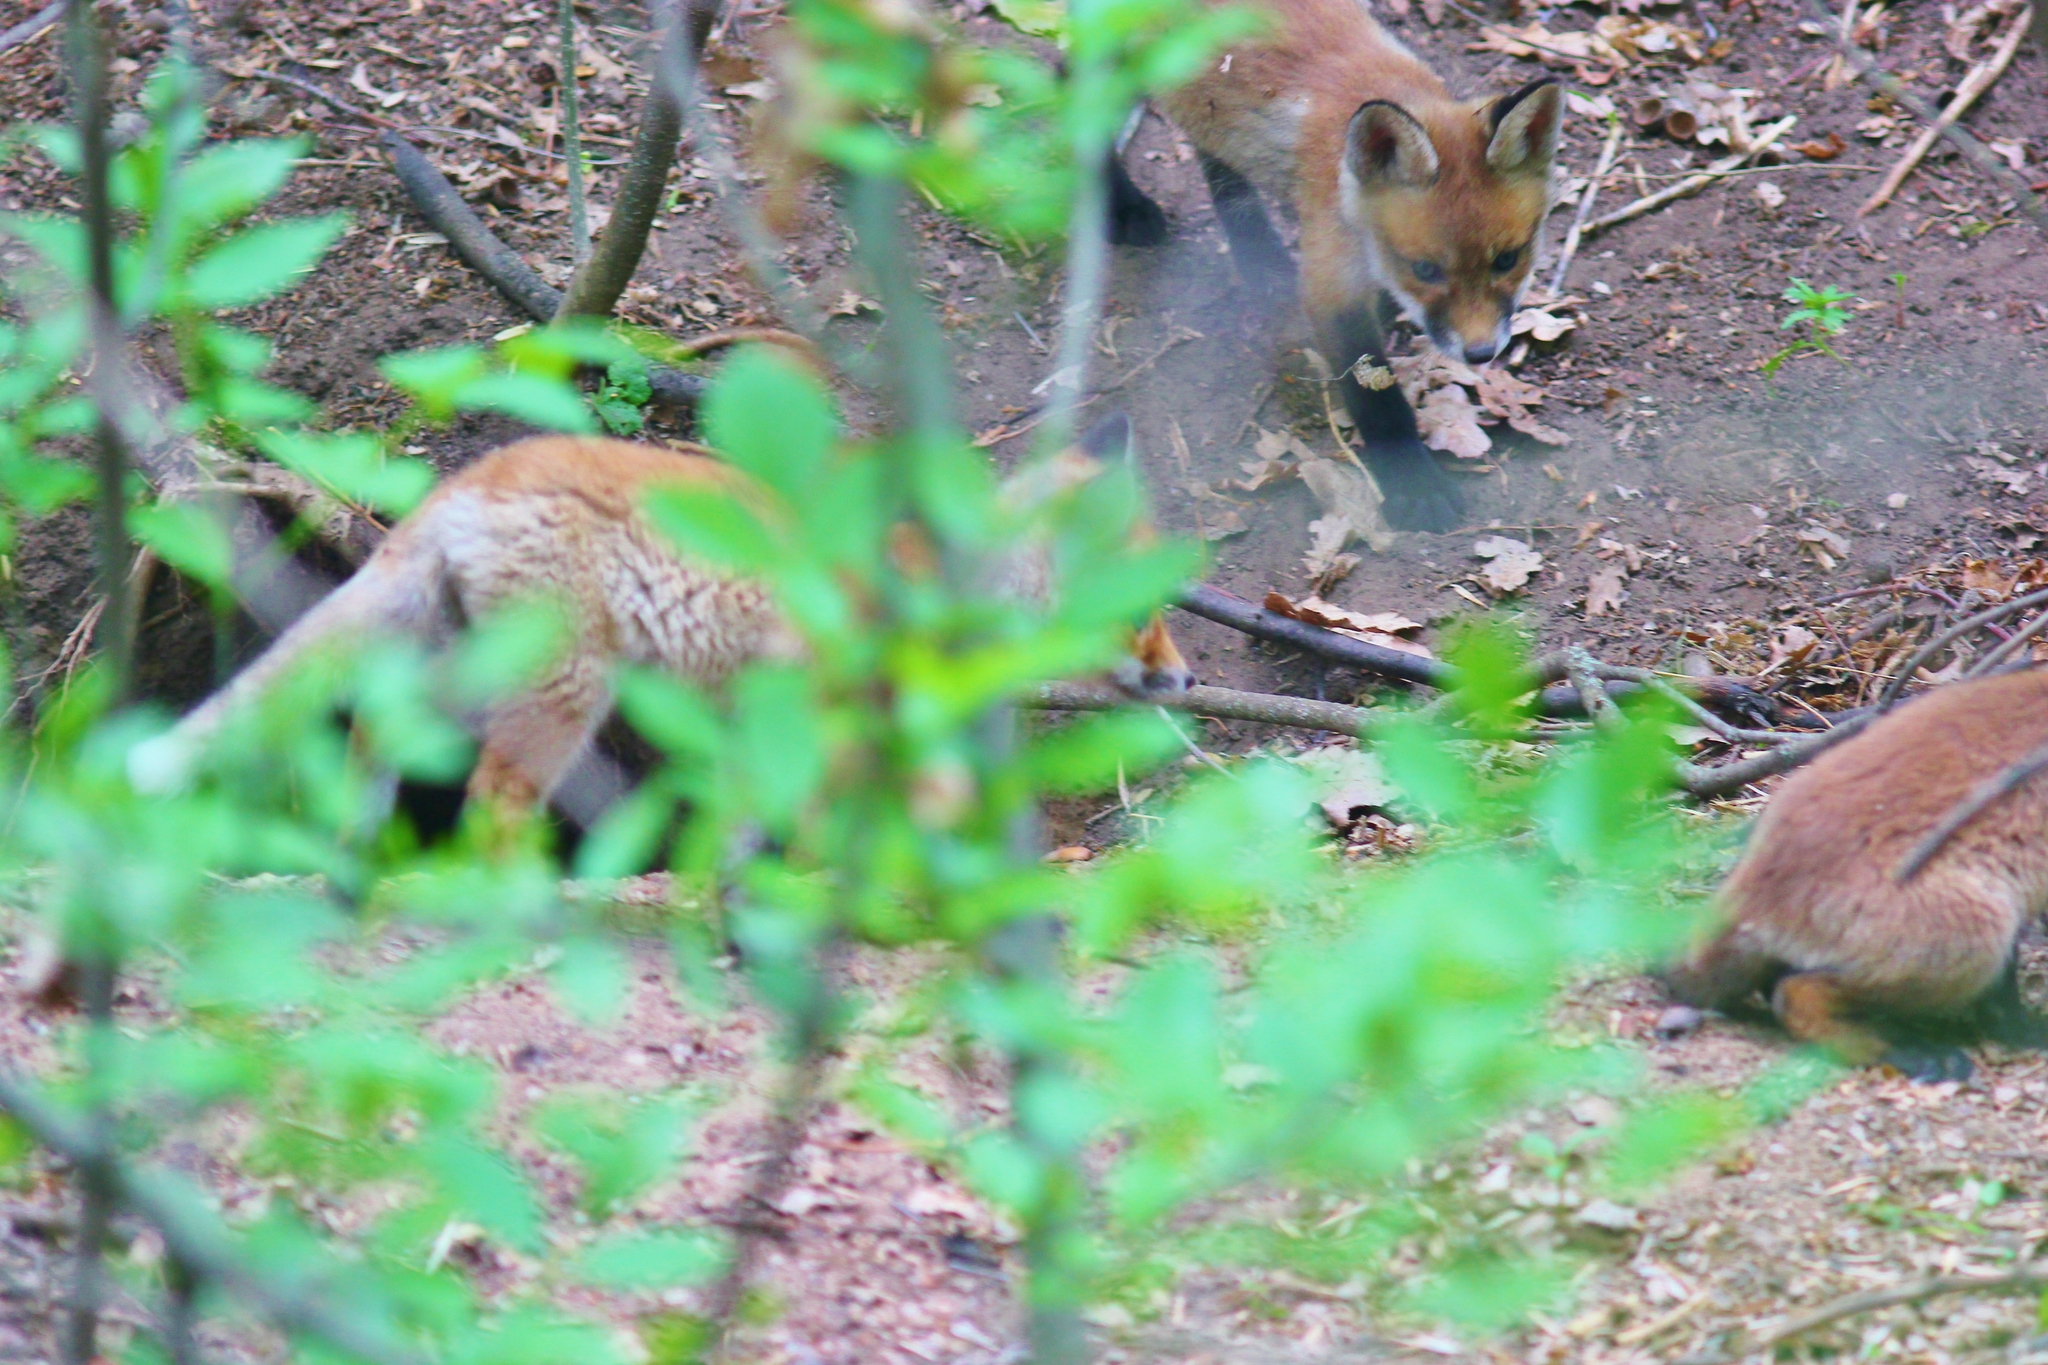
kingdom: Animalia
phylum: Chordata
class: Mammalia
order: Carnivora
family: Canidae
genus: Vulpes
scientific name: Vulpes vulpes
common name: Red fox
